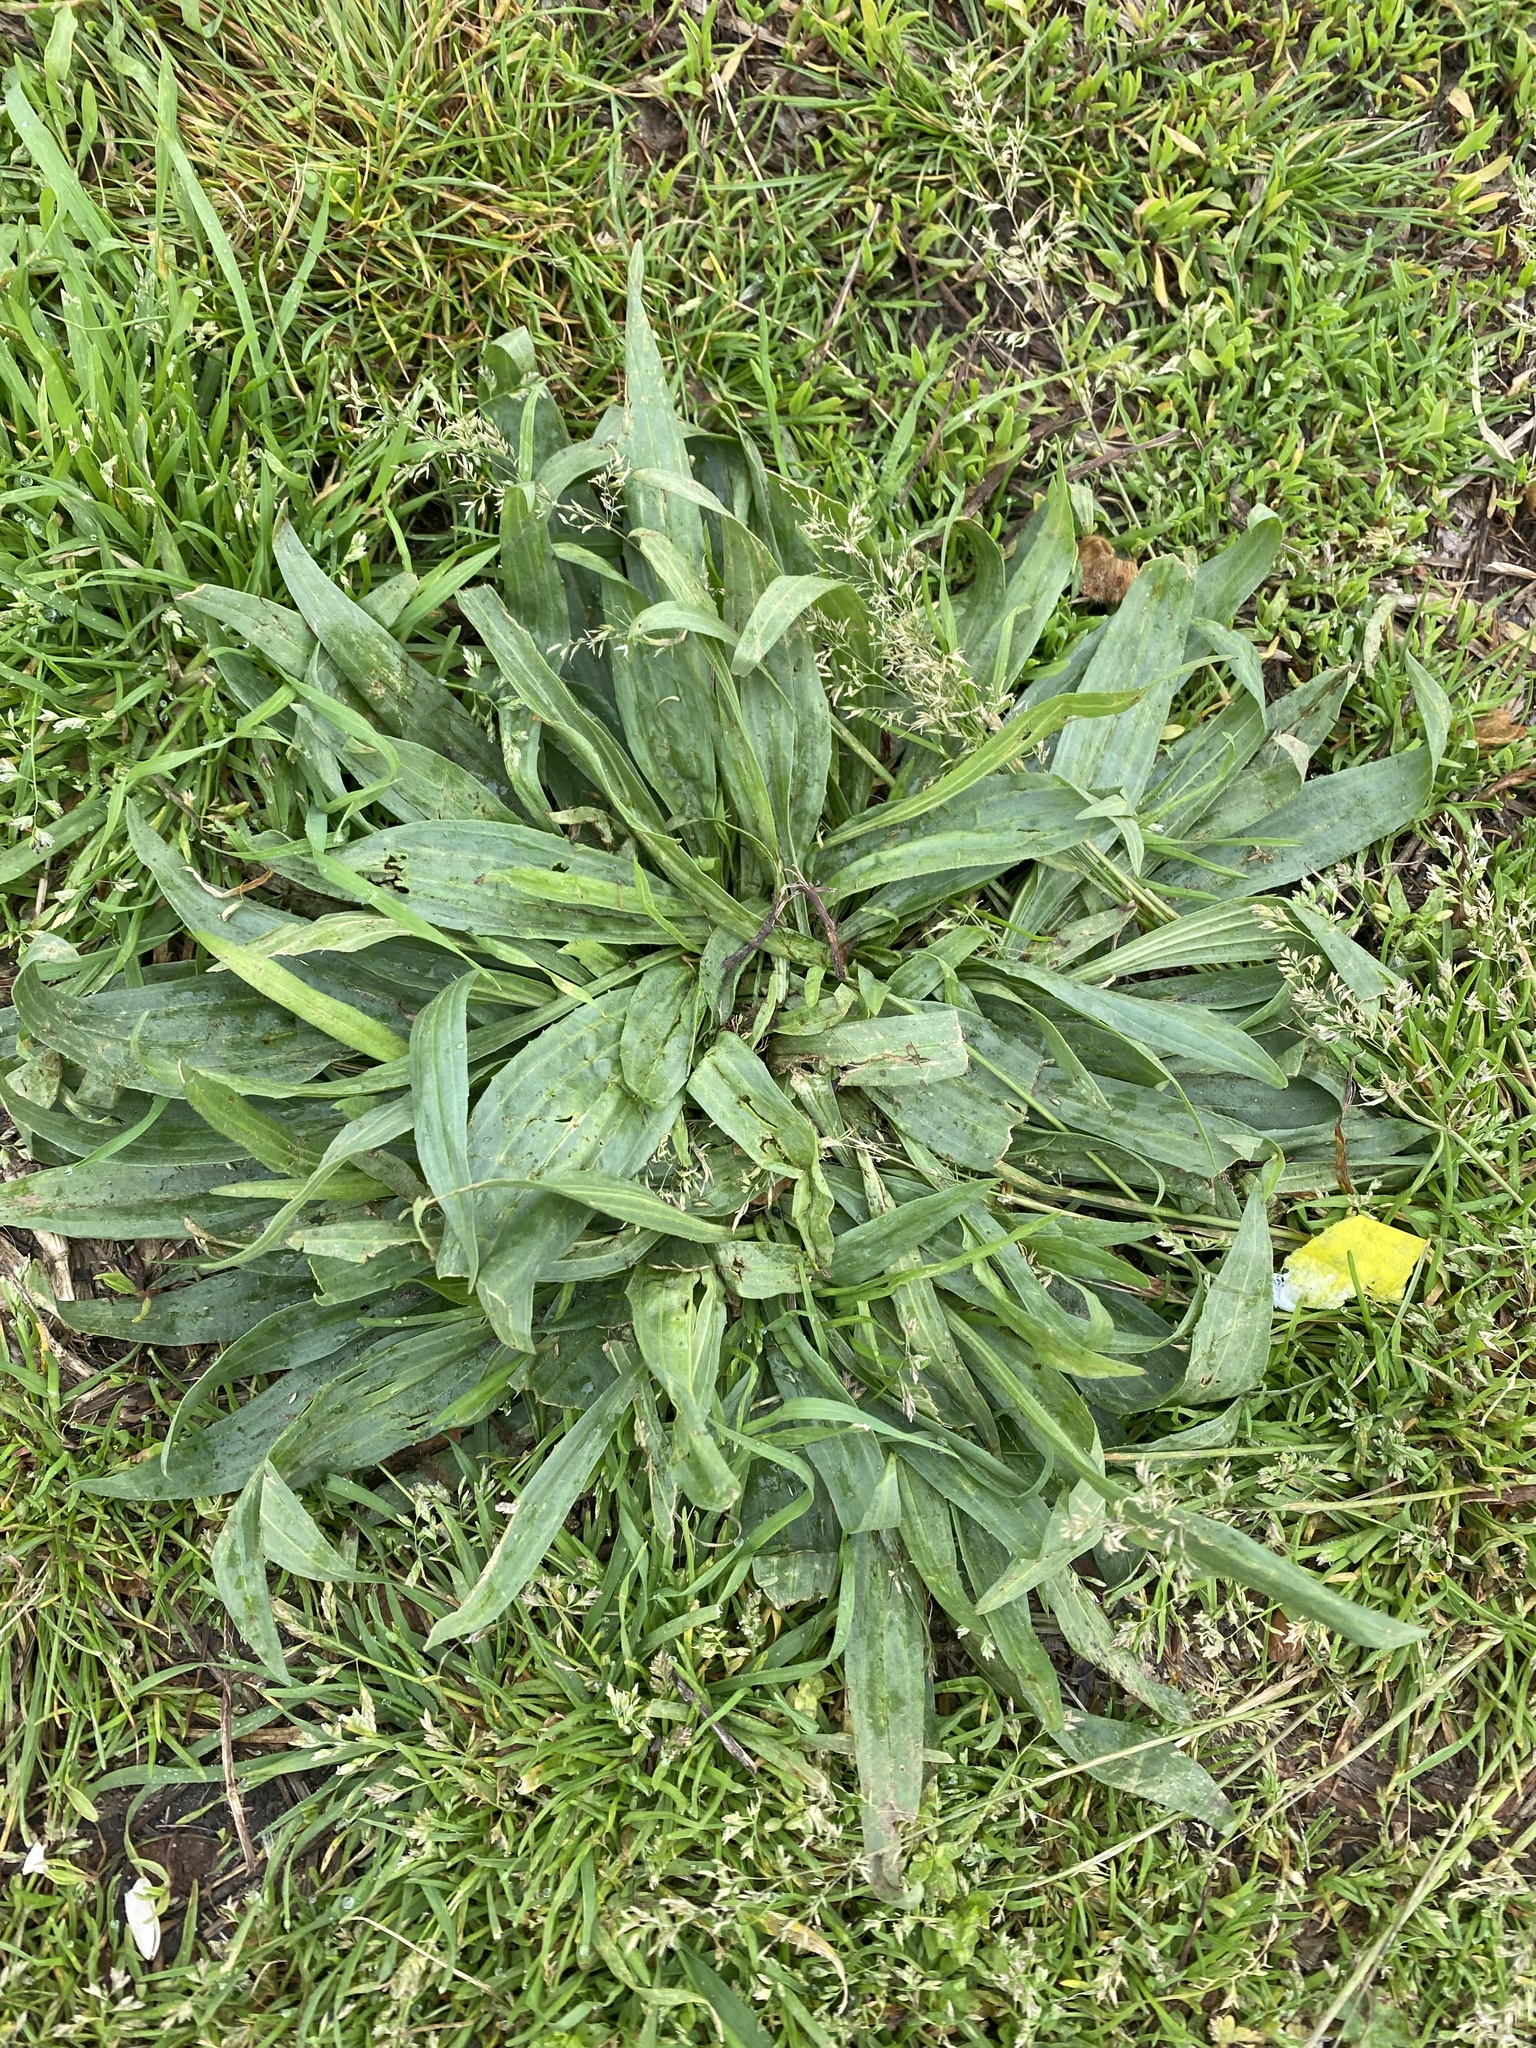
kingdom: Plantae
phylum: Tracheophyta
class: Magnoliopsida
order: Lamiales
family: Plantaginaceae
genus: Plantago
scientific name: Plantago lanceolata
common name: Ribwort plantain
